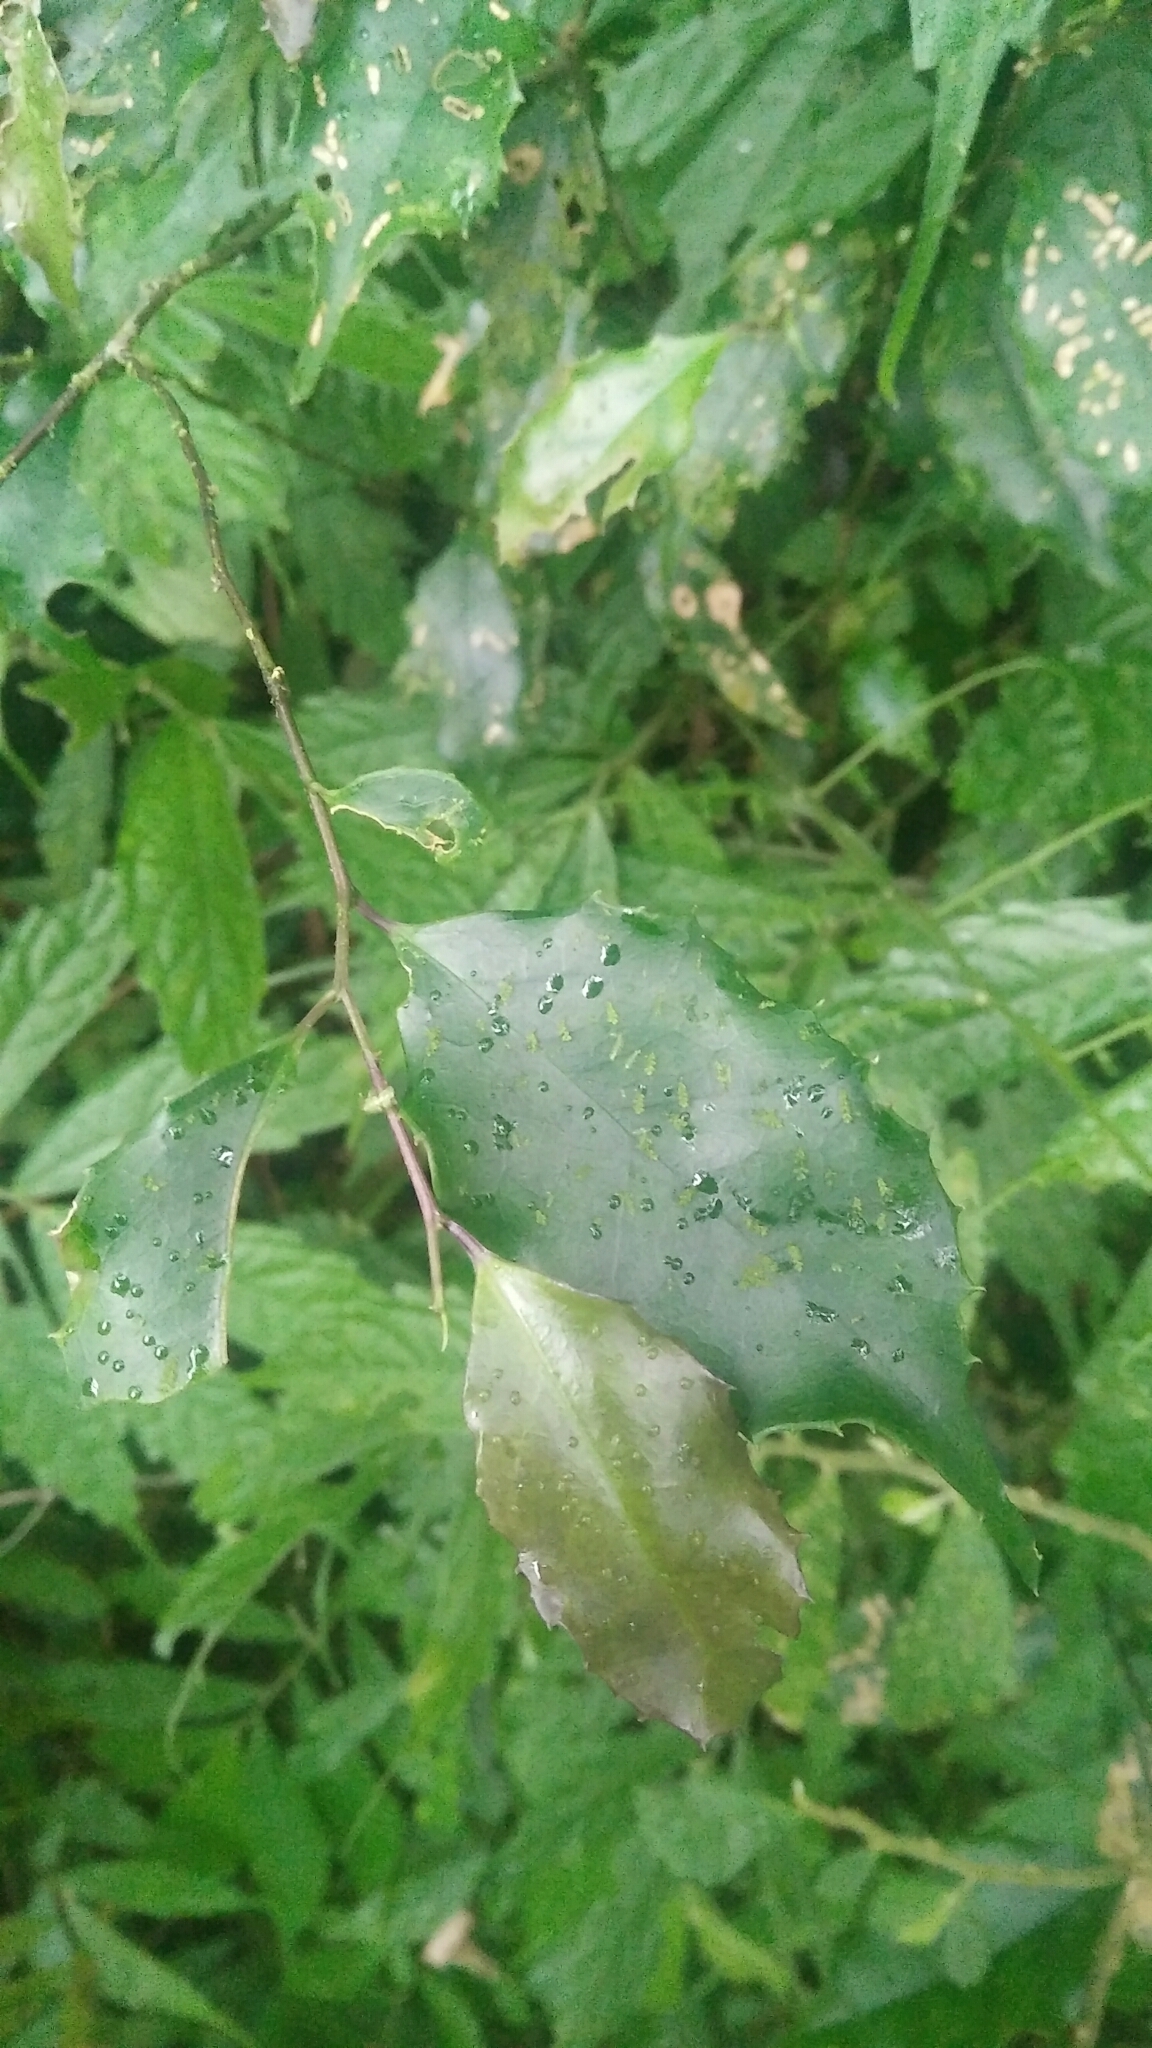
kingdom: Plantae
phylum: Tracheophyta
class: Magnoliopsida
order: Ericales
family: Symplocaceae
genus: Symplocos
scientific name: Symplocos sumuntia
